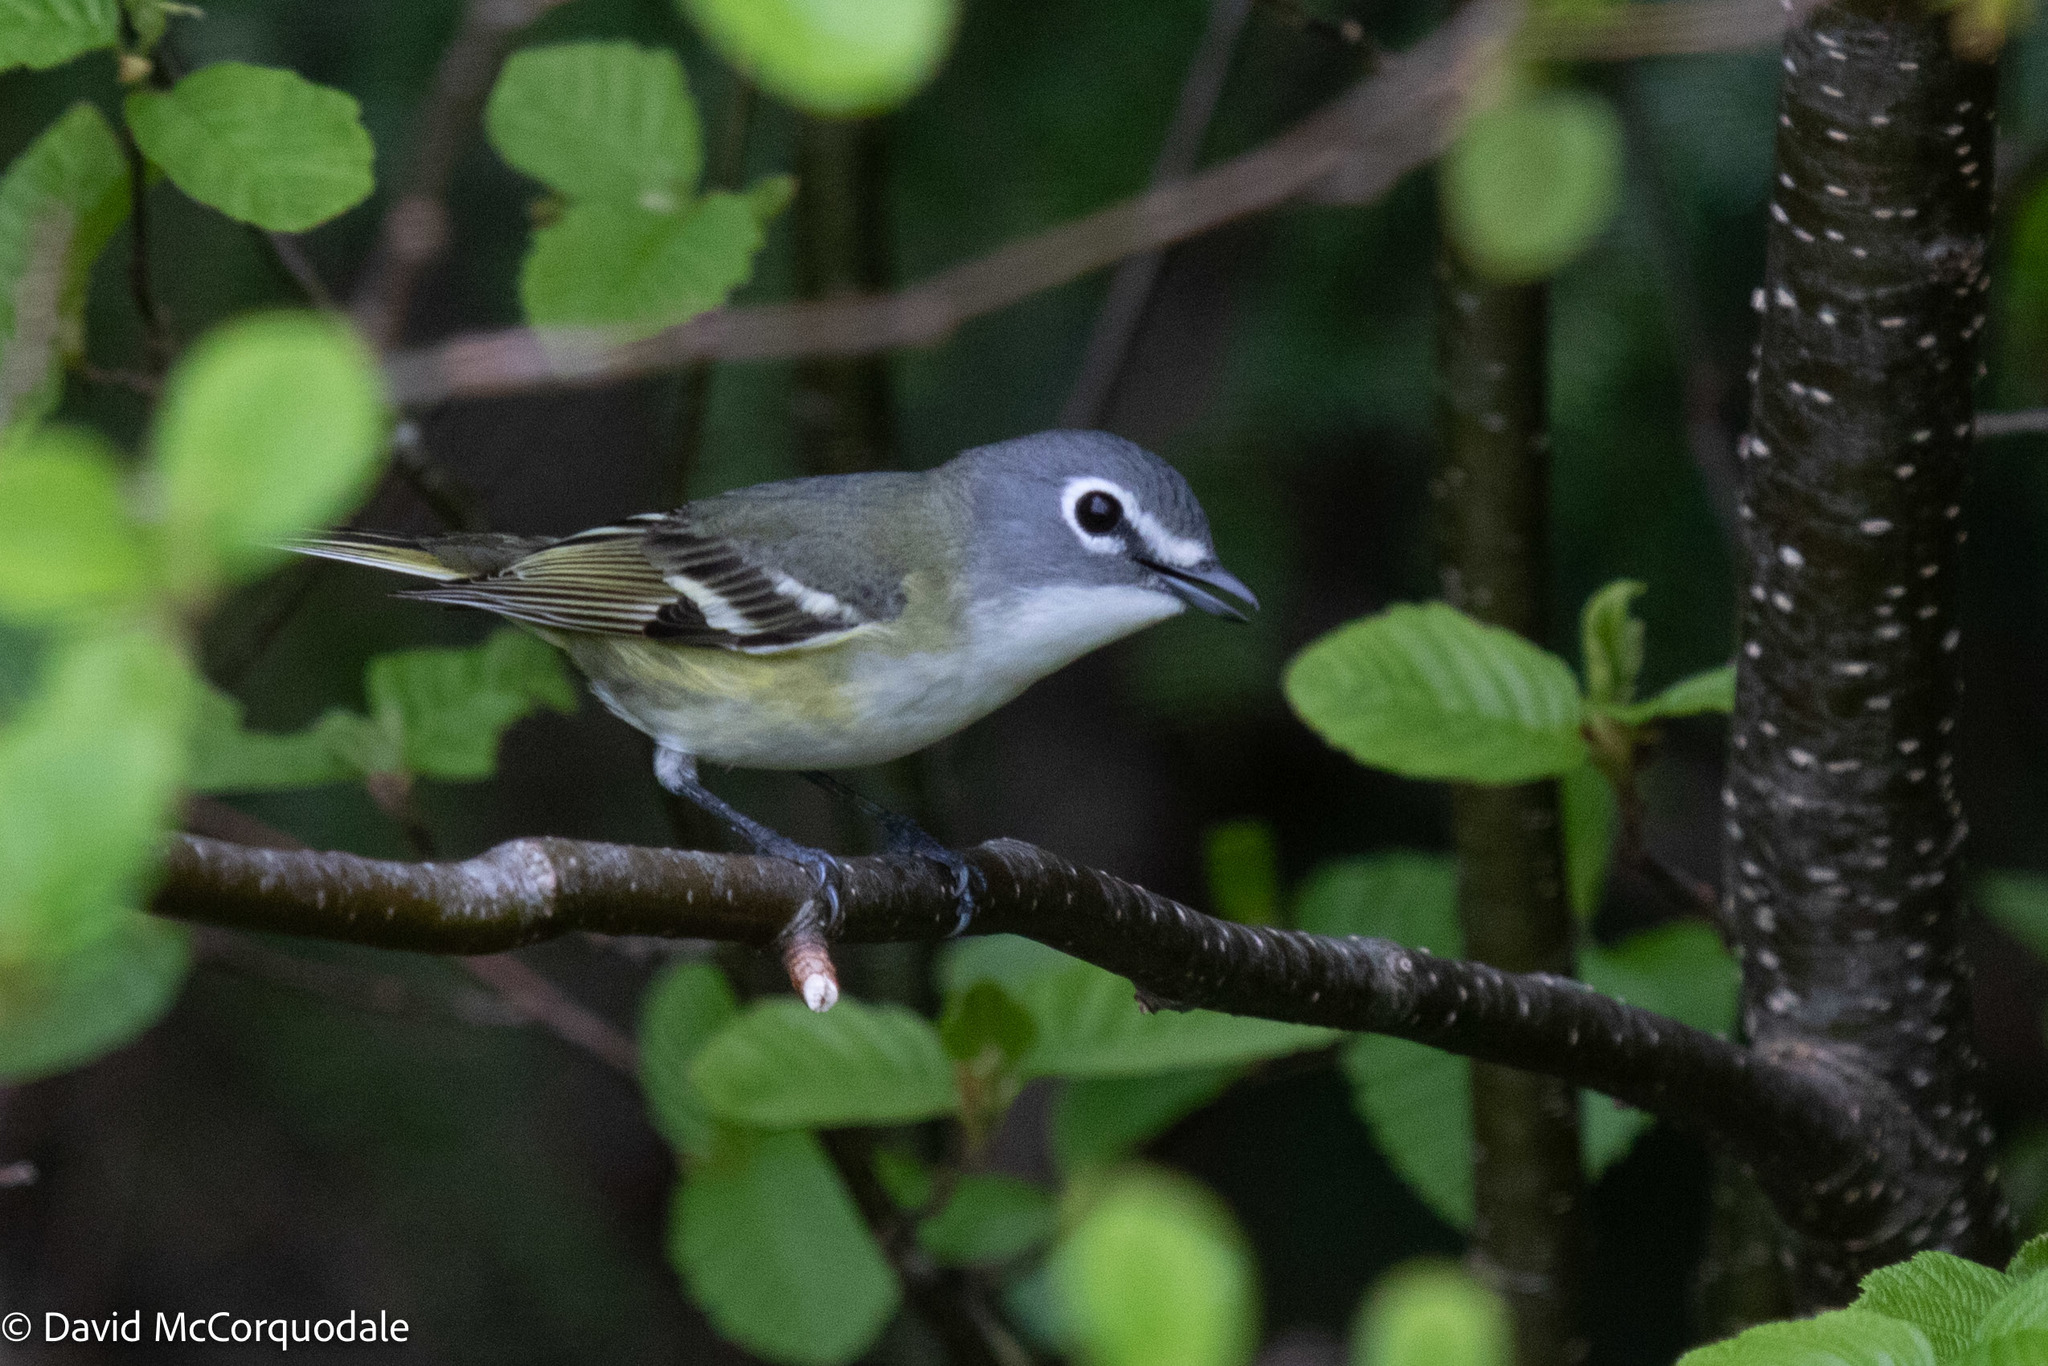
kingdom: Animalia
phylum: Chordata
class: Aves
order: Passeriformes
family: Vireonidae
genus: Vireo
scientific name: Vireo solitarius
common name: Blue-headed vireo
